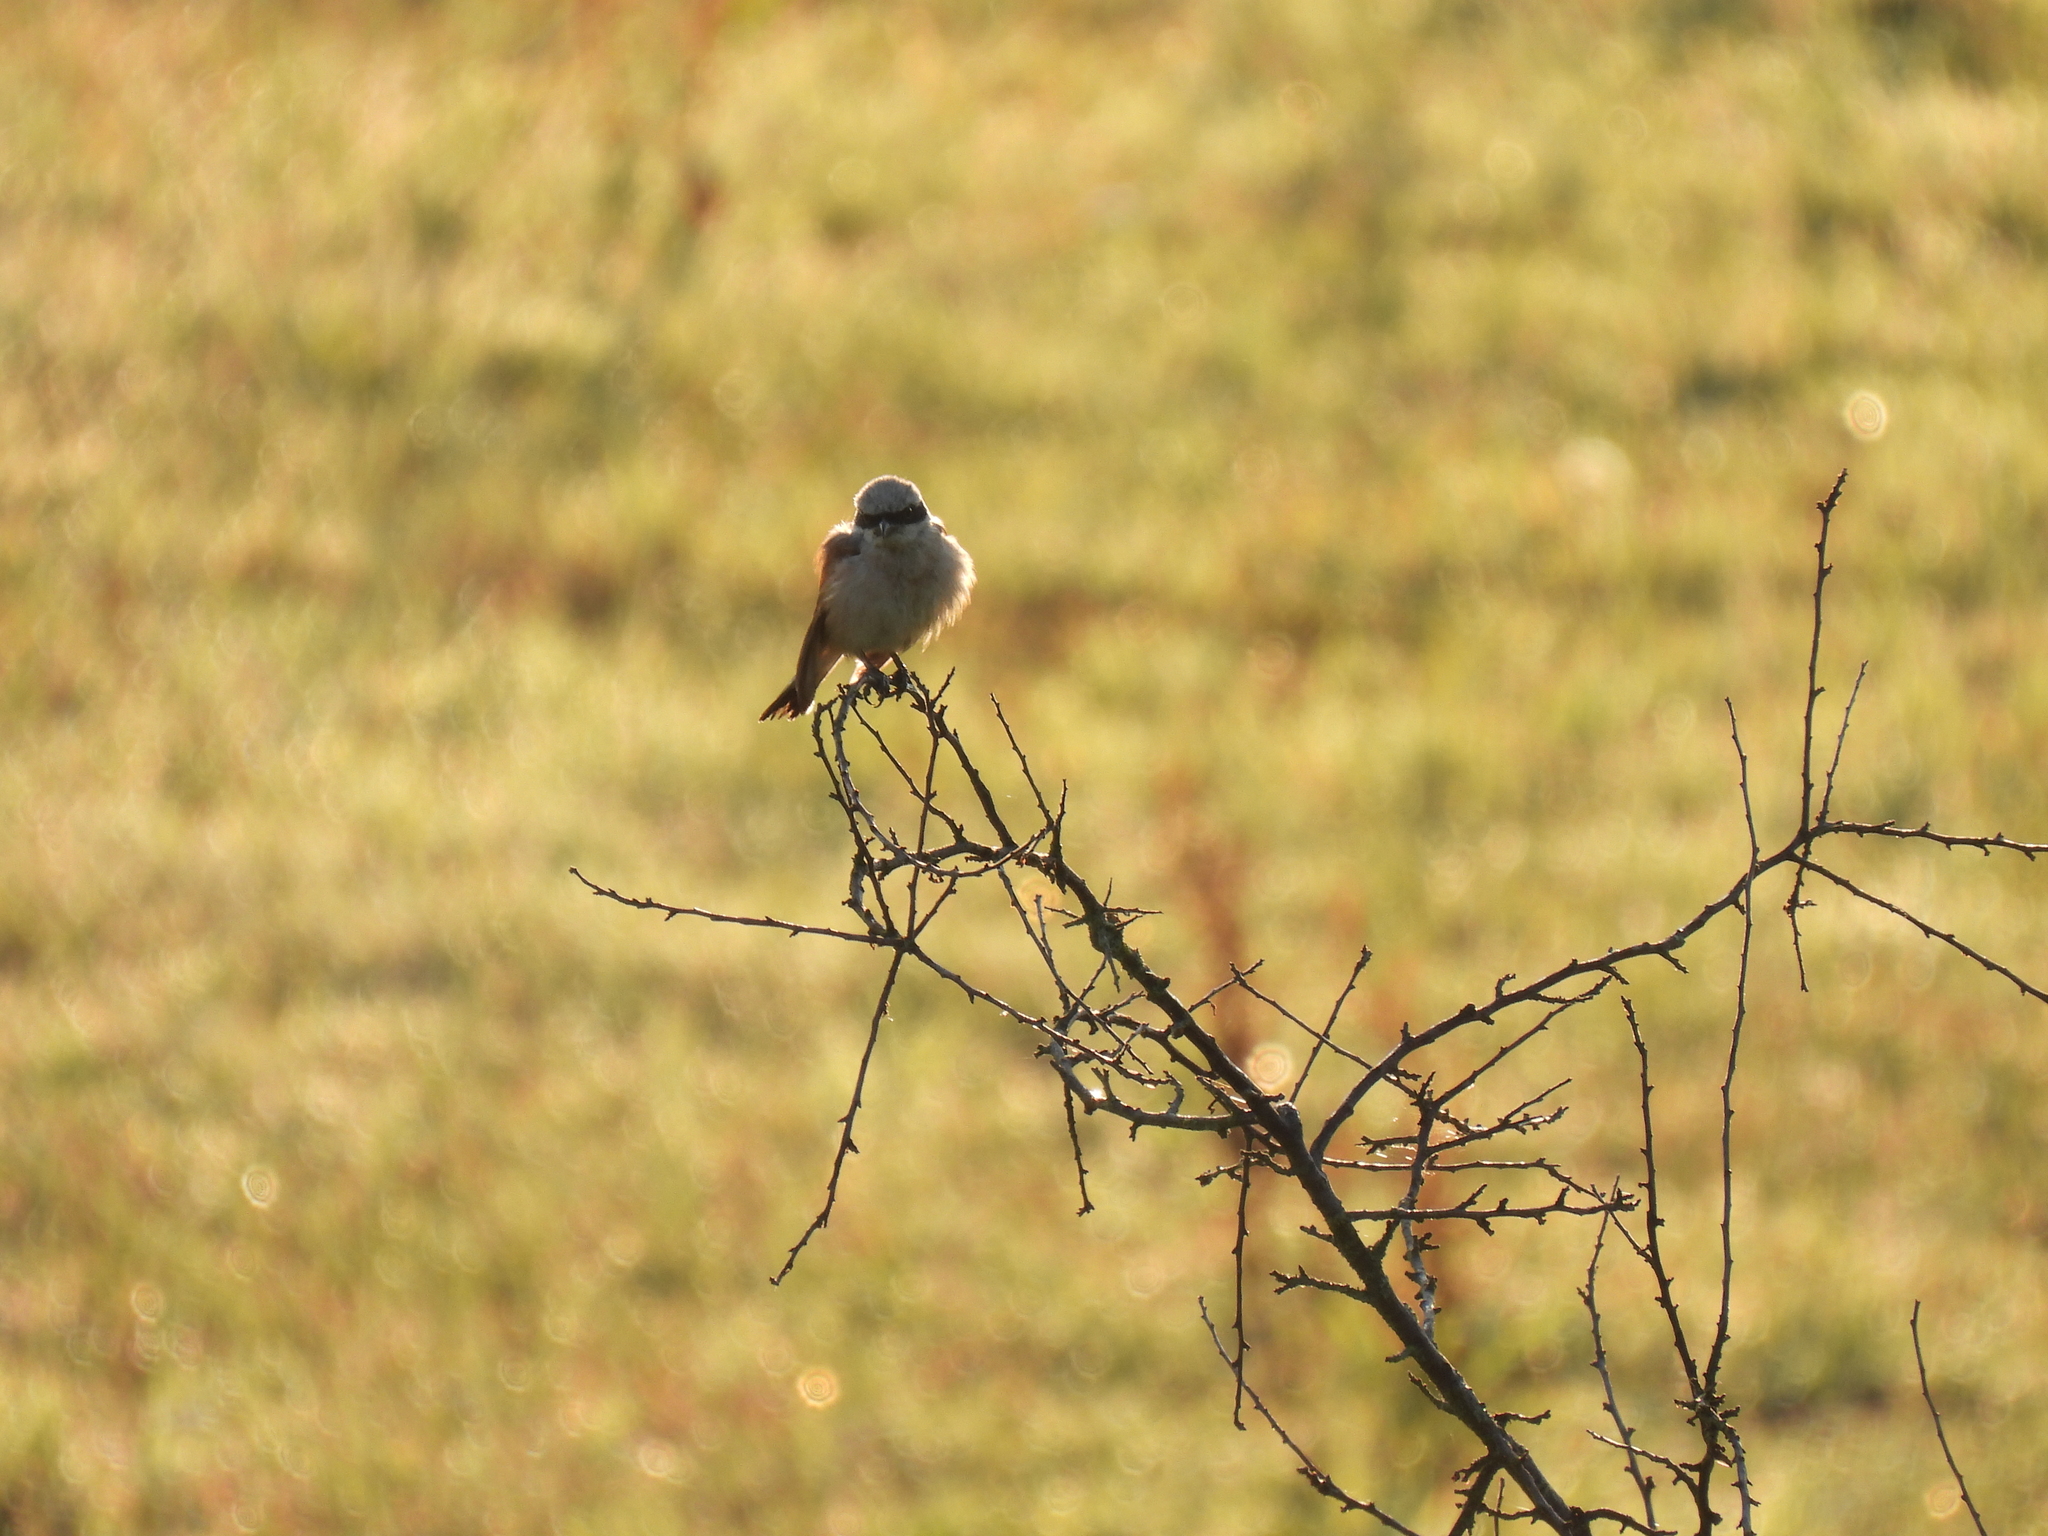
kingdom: Animalia
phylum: Chordata
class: Aves
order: Passeriformes
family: Laniidae
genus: Lanius
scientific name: Lanius collurio
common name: Red-backed shrike
